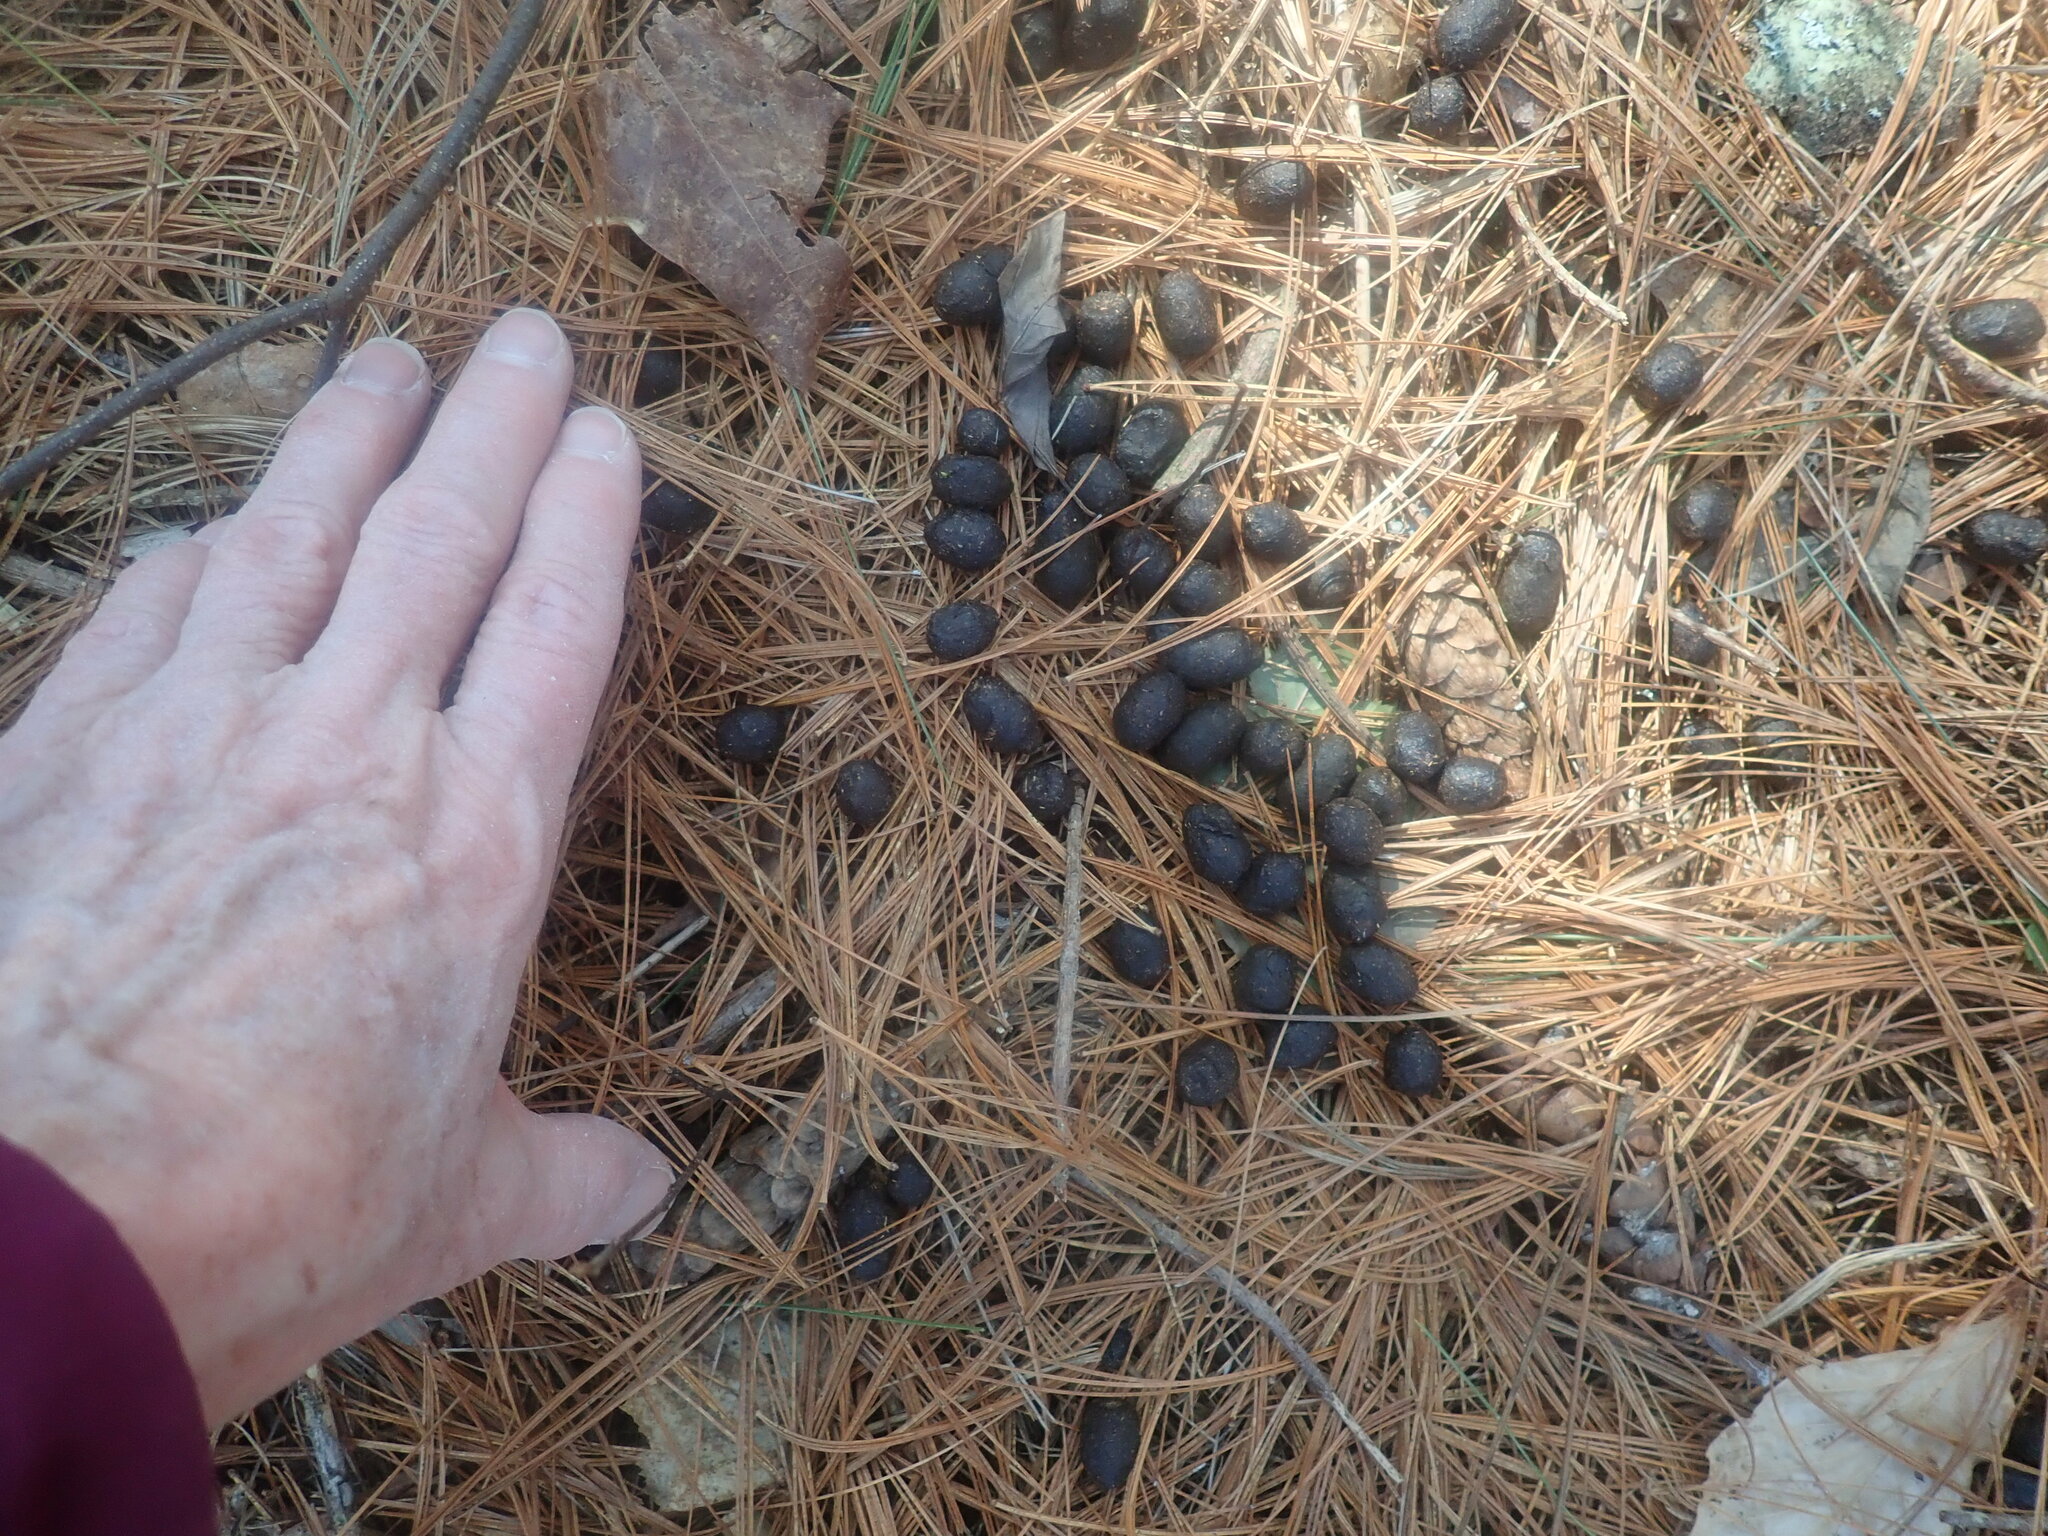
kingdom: Animalia
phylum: Chordata
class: Mammalia
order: Artiodactyla
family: Cervidae
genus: Odocoileus
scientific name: Odocoileus virginianus
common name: White-tailed deer
